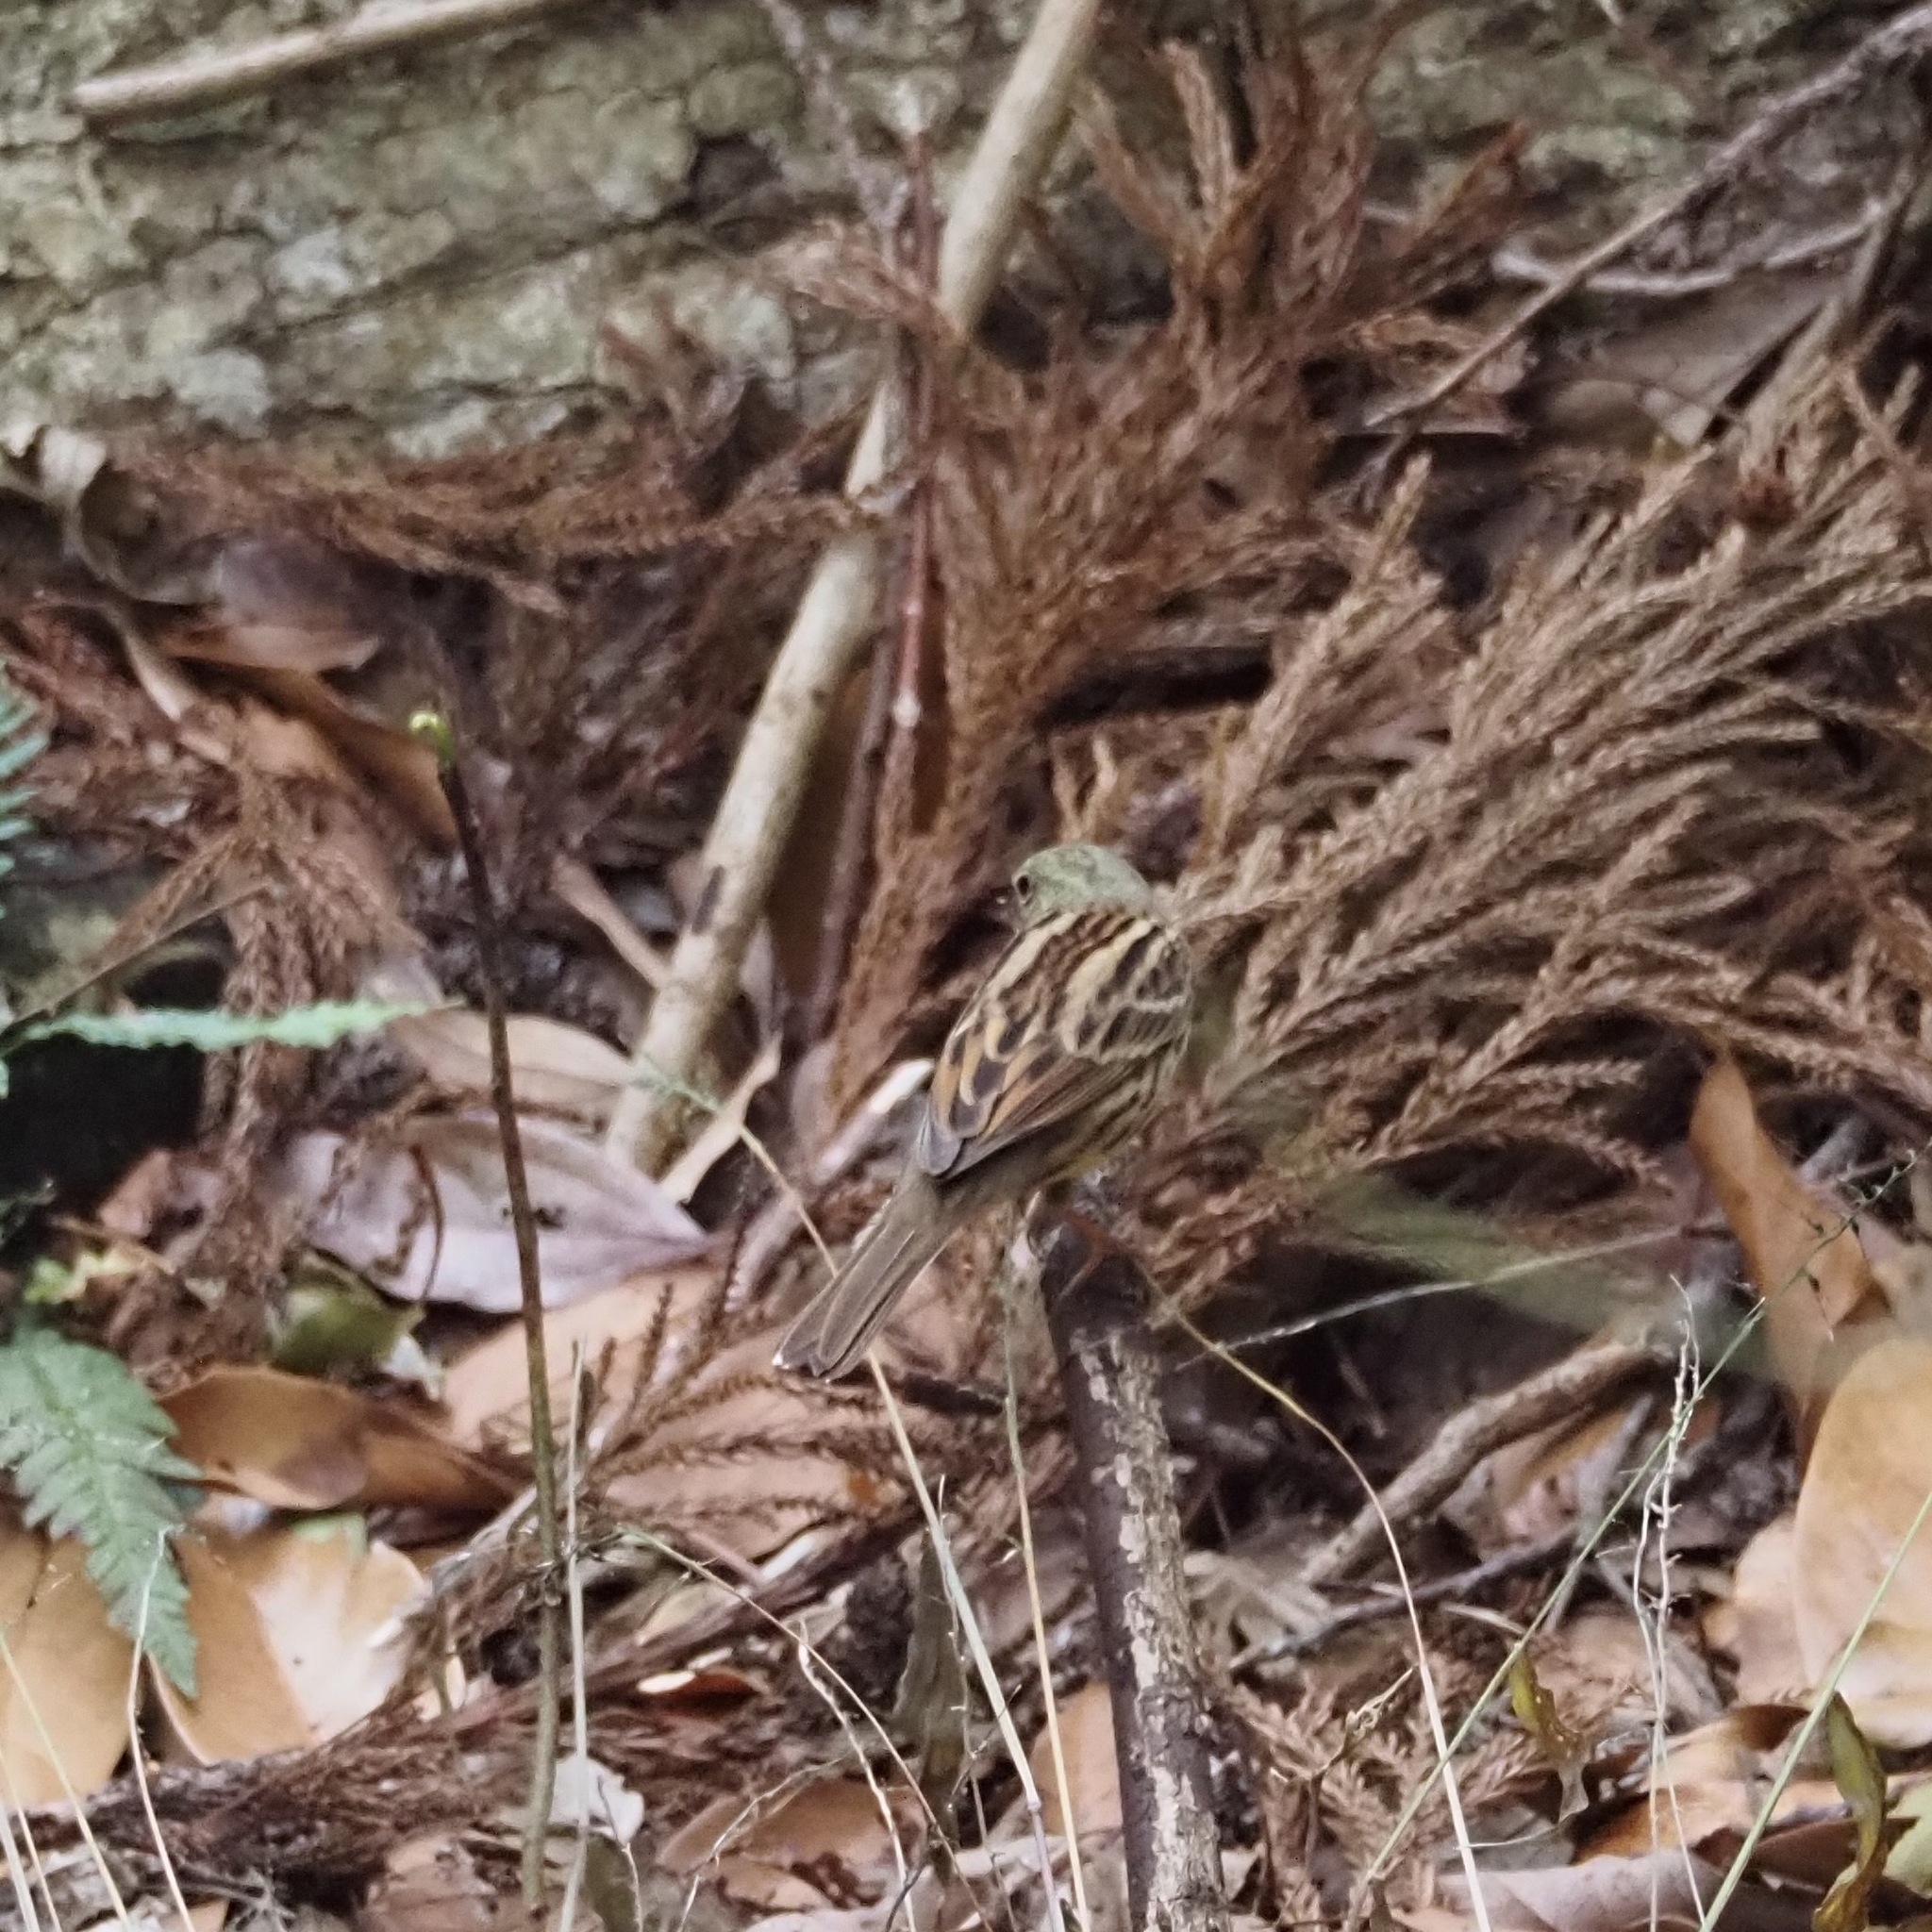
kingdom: Animalia
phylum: Chordata
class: Aves
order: Passeriformes
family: Emberizidae
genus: Emberiza
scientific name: Emberiza personata
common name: Masked bunting
